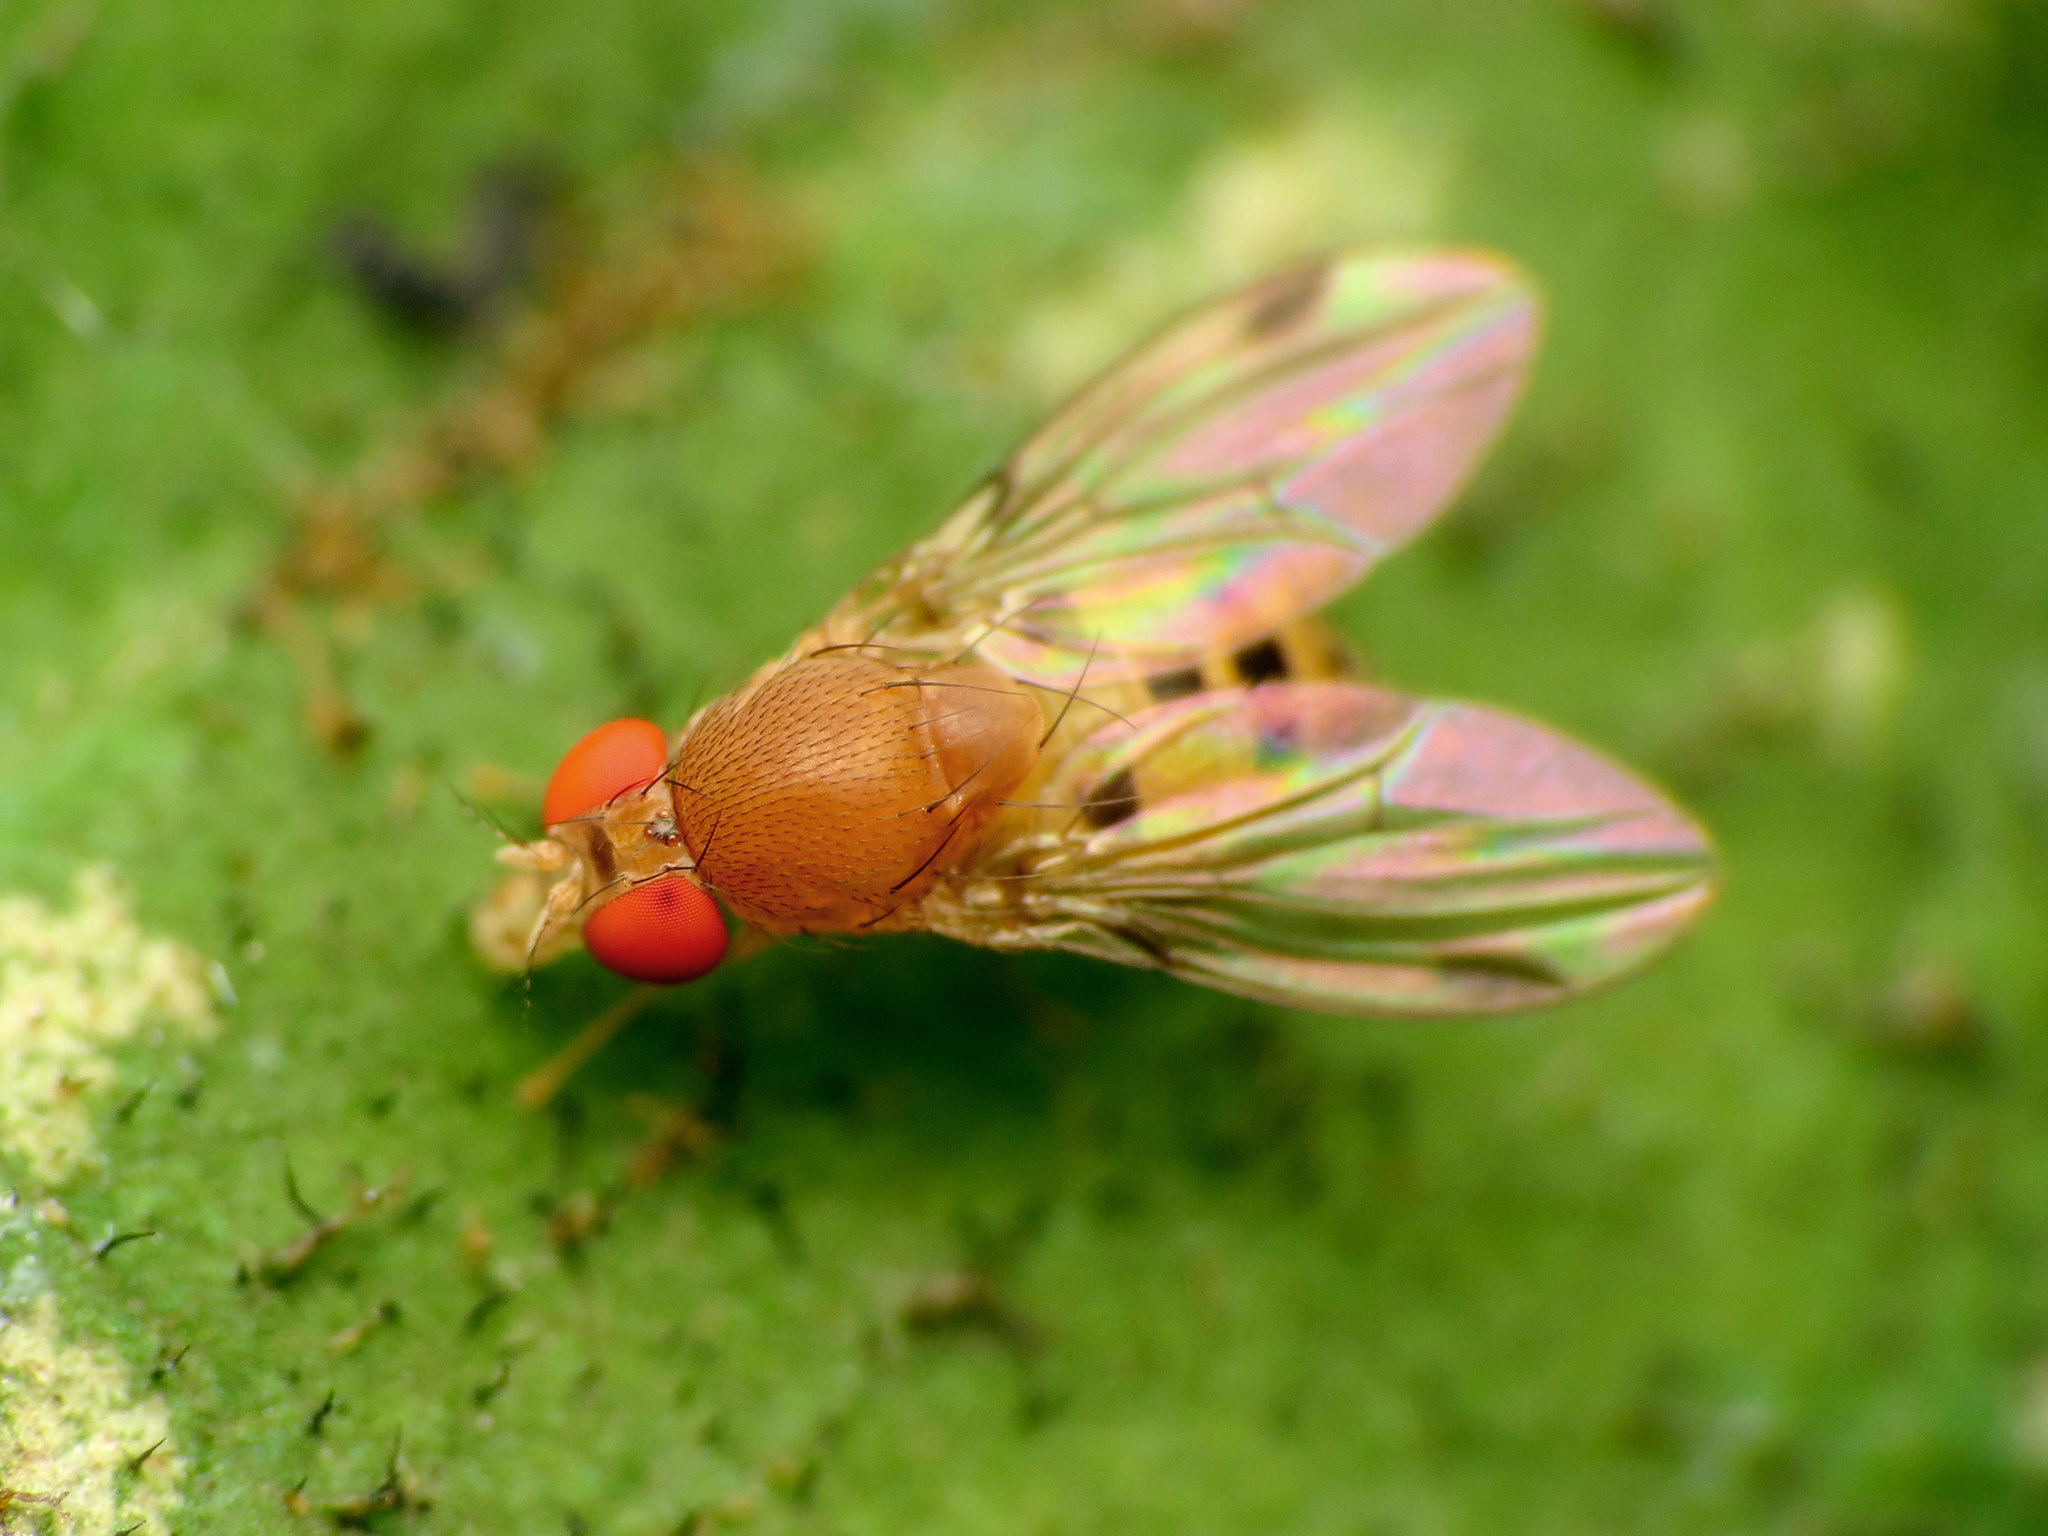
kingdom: Animalia
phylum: Arthropoda
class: Insecta
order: Diptera
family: Drosophilidae
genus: Leucophenga
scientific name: Leucophenga varia
